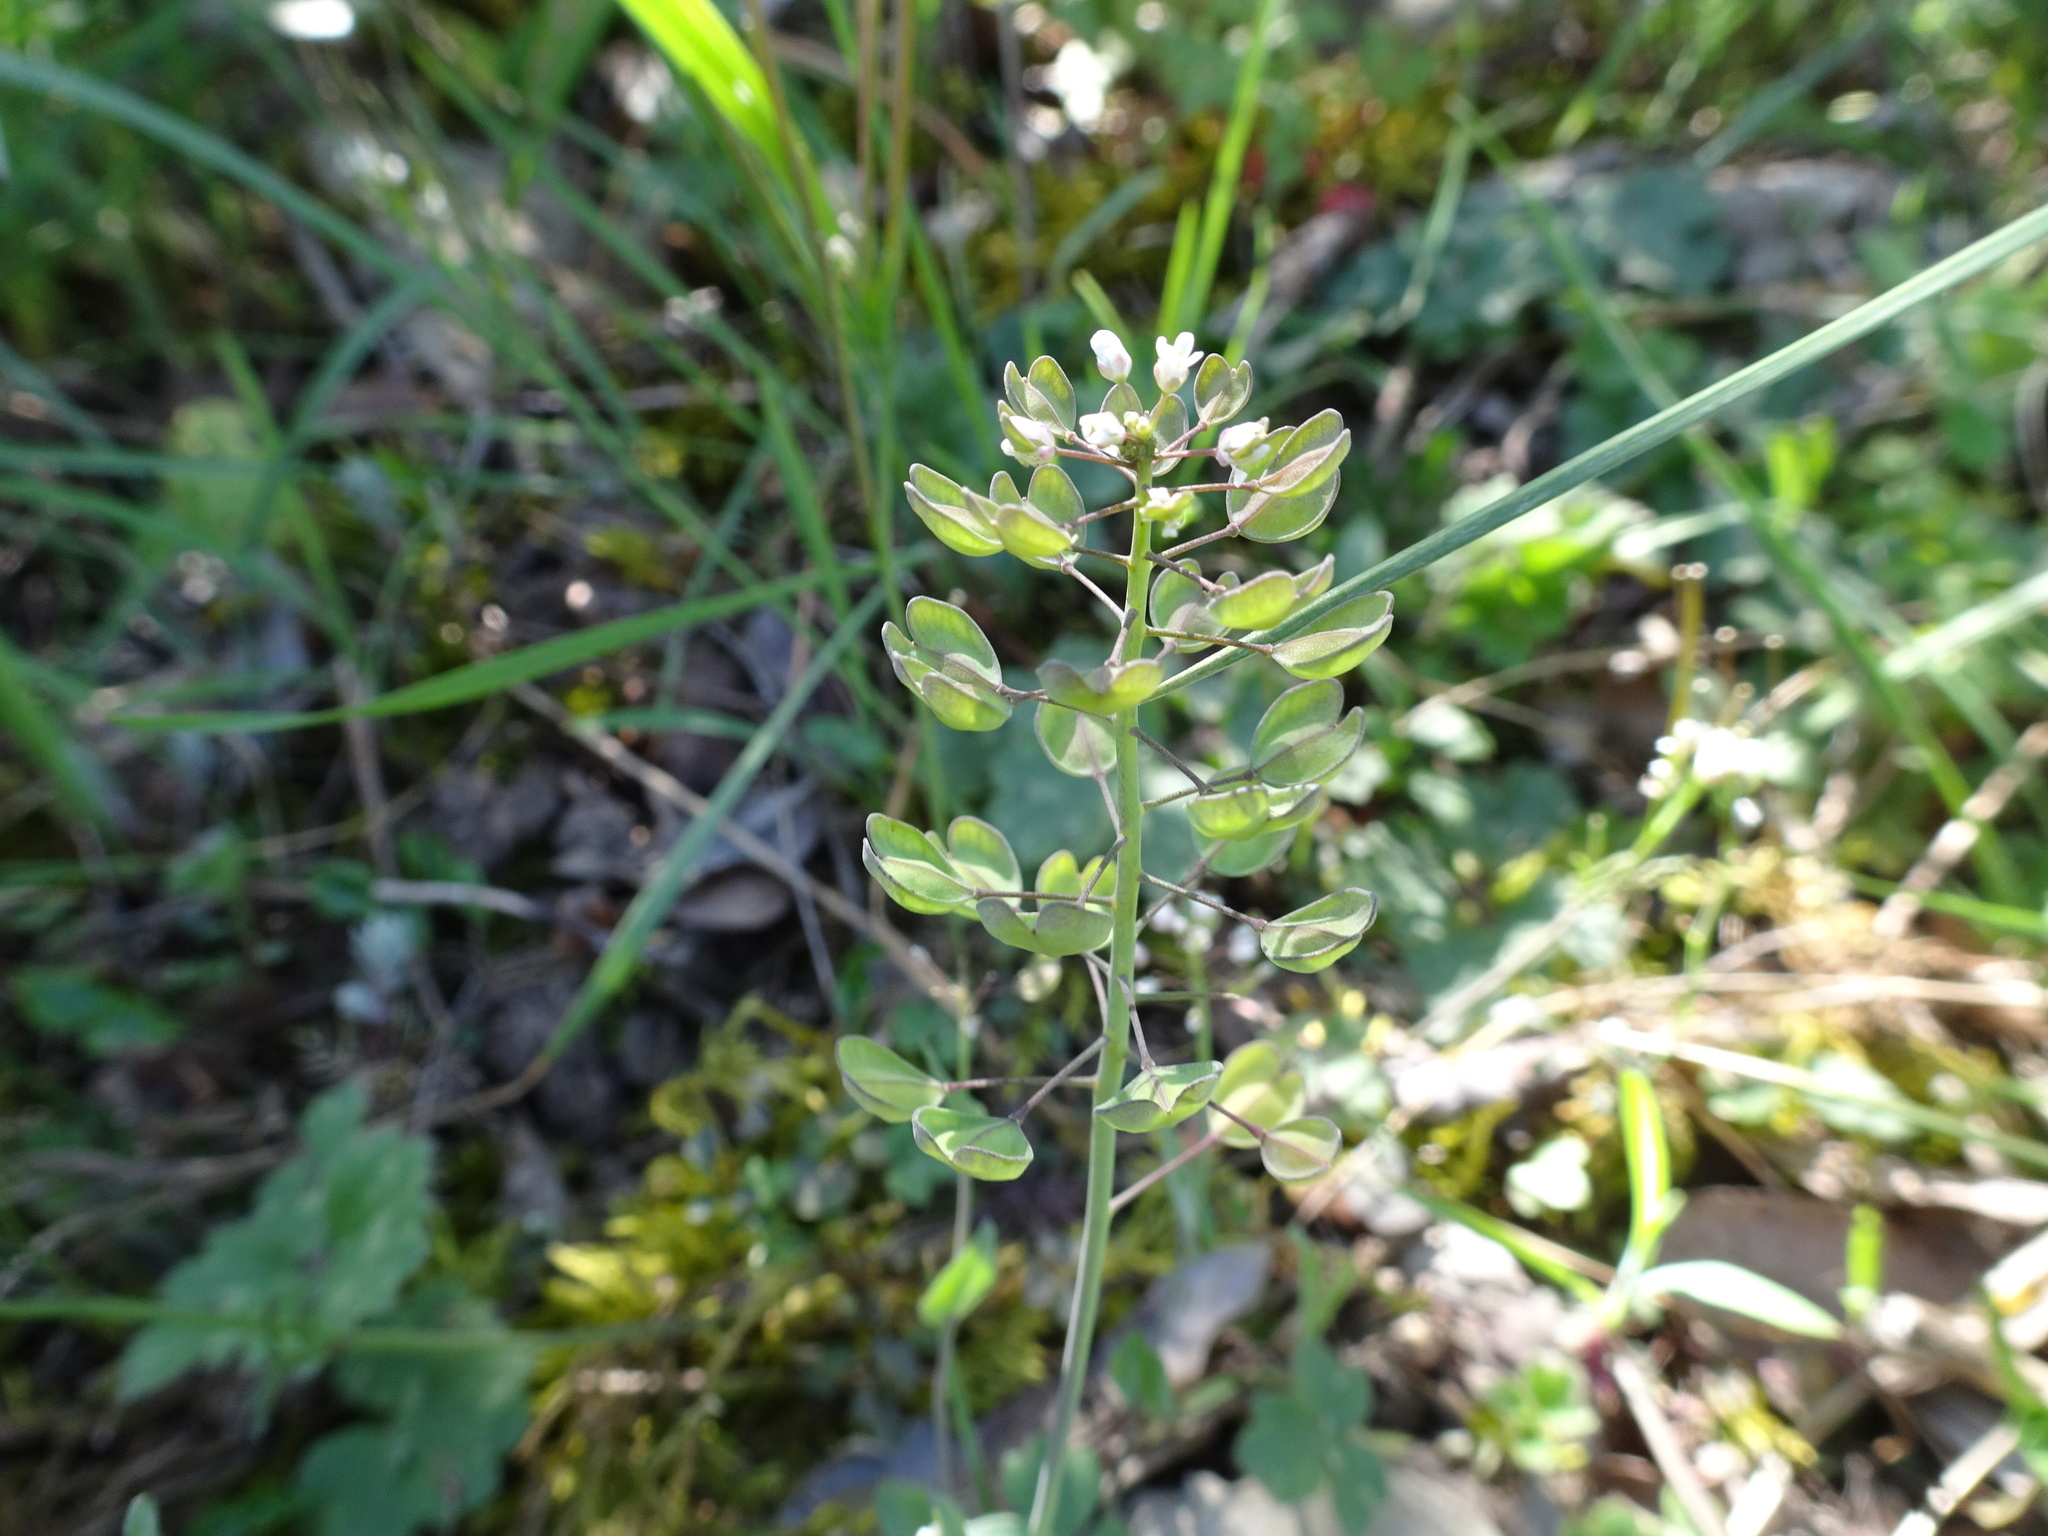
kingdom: Plantae
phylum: Tracheophyta
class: Magnoliopsida
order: Brassicales
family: Brassicaceae
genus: Noccaea
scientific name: Noccaea perfoliata
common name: Perfoliate pennycress
